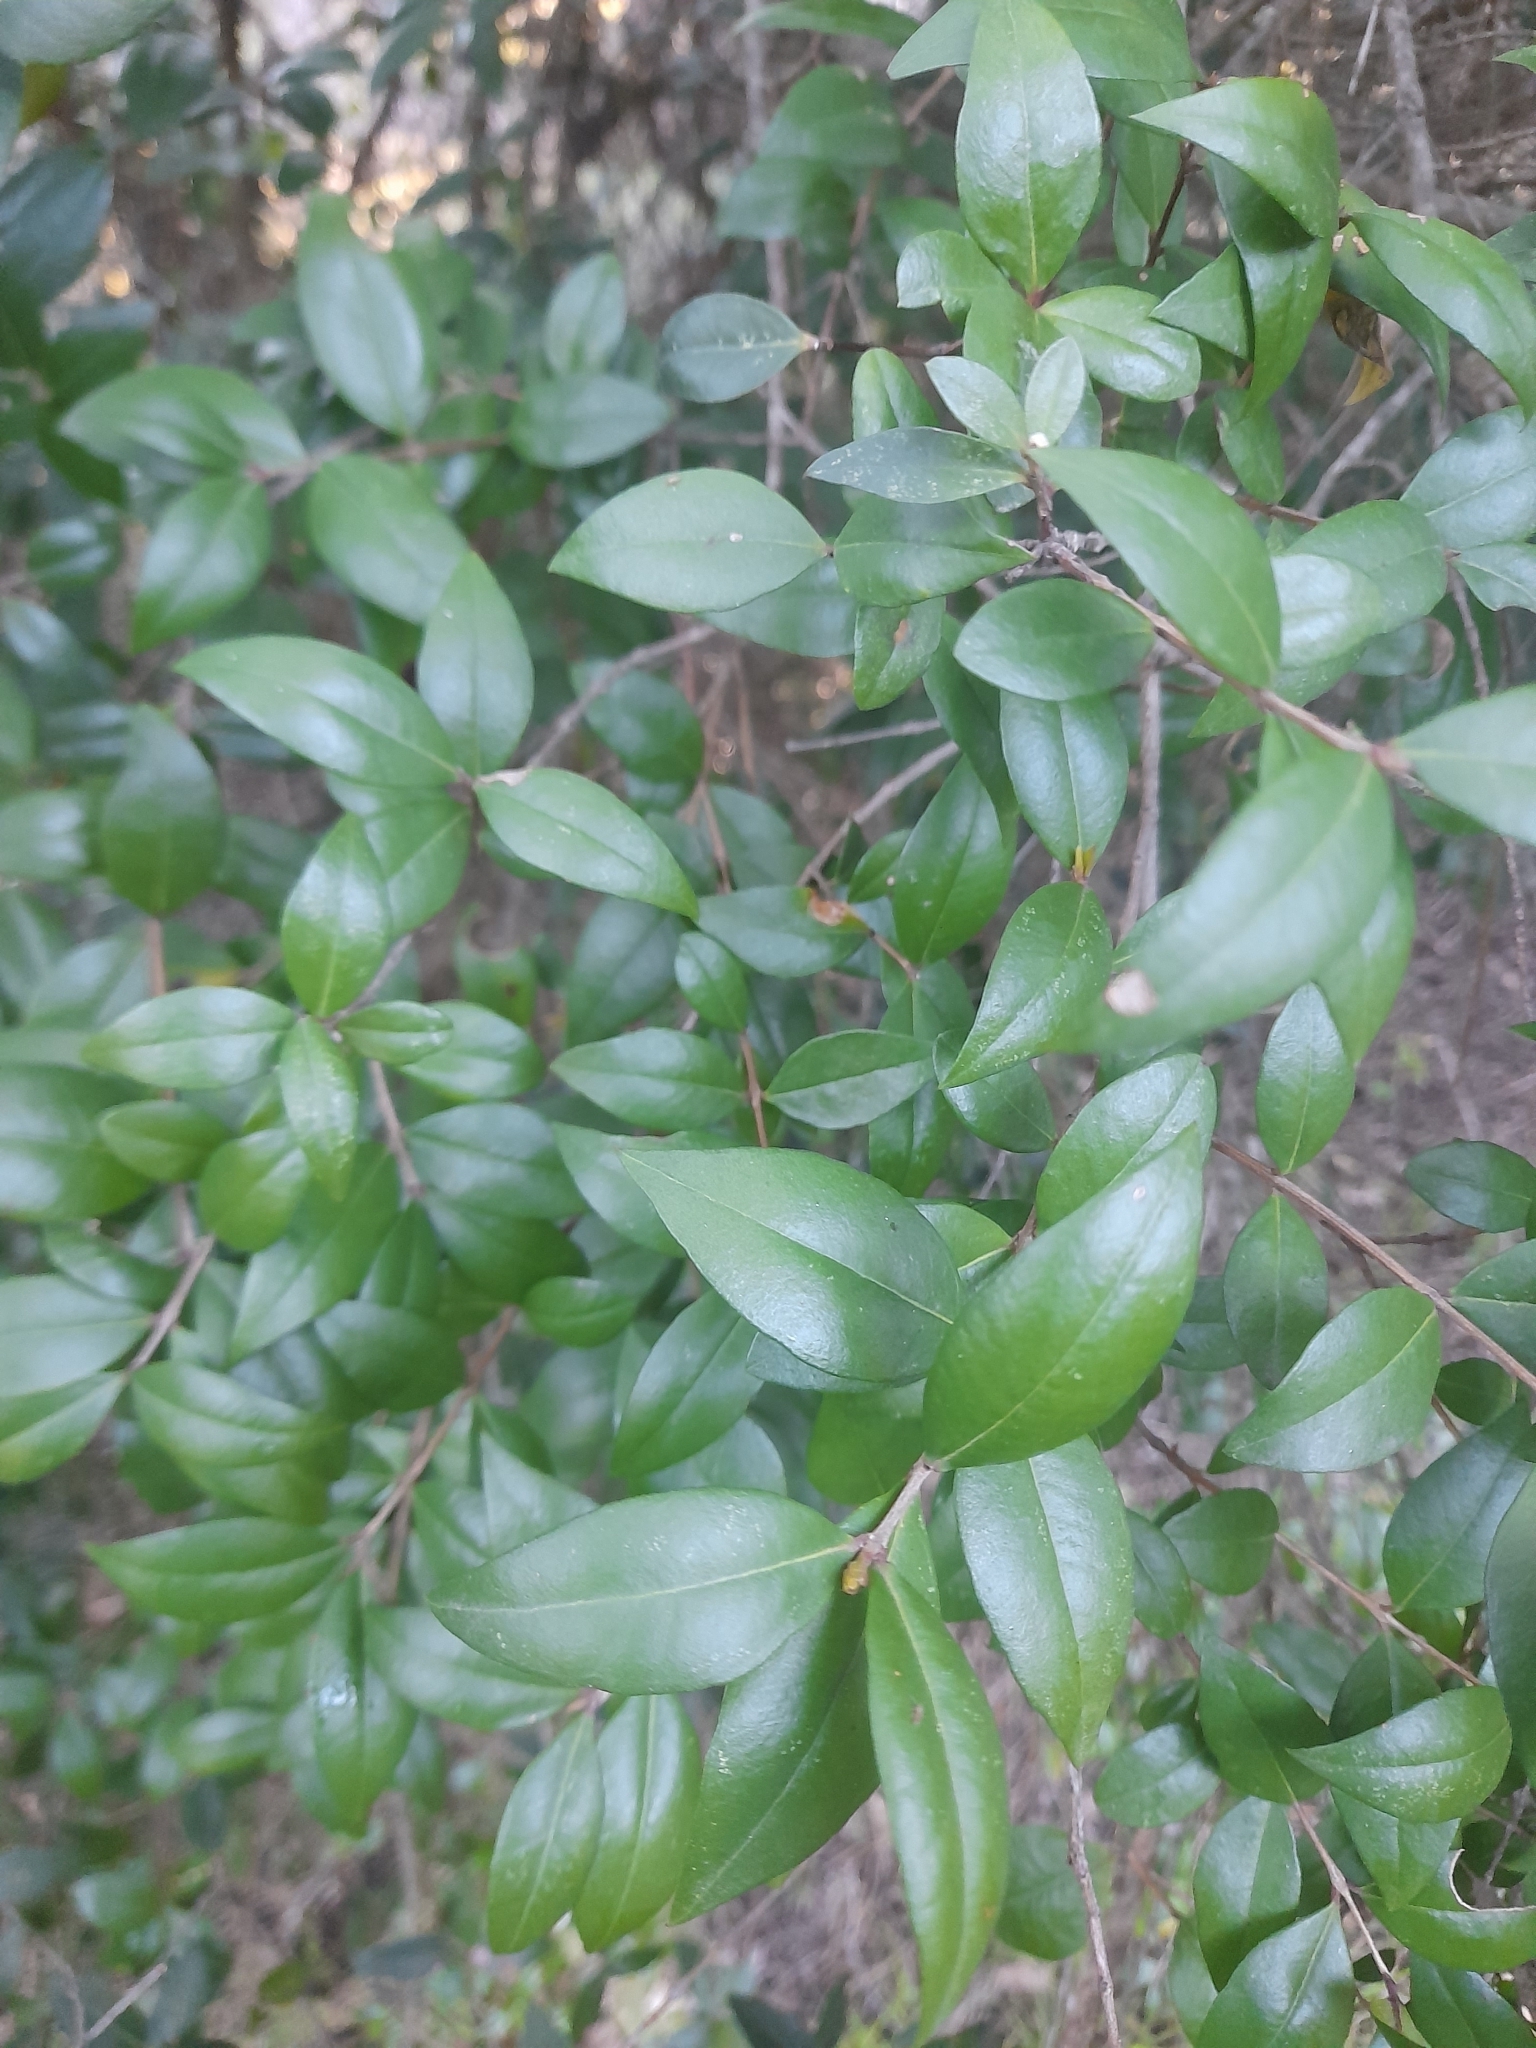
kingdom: Plantae
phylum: Tracheophyta
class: Magnoliopsida
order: Myrtales
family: Myrtaceae
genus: Myrtus
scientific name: Myrtus communis
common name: Myrtle
